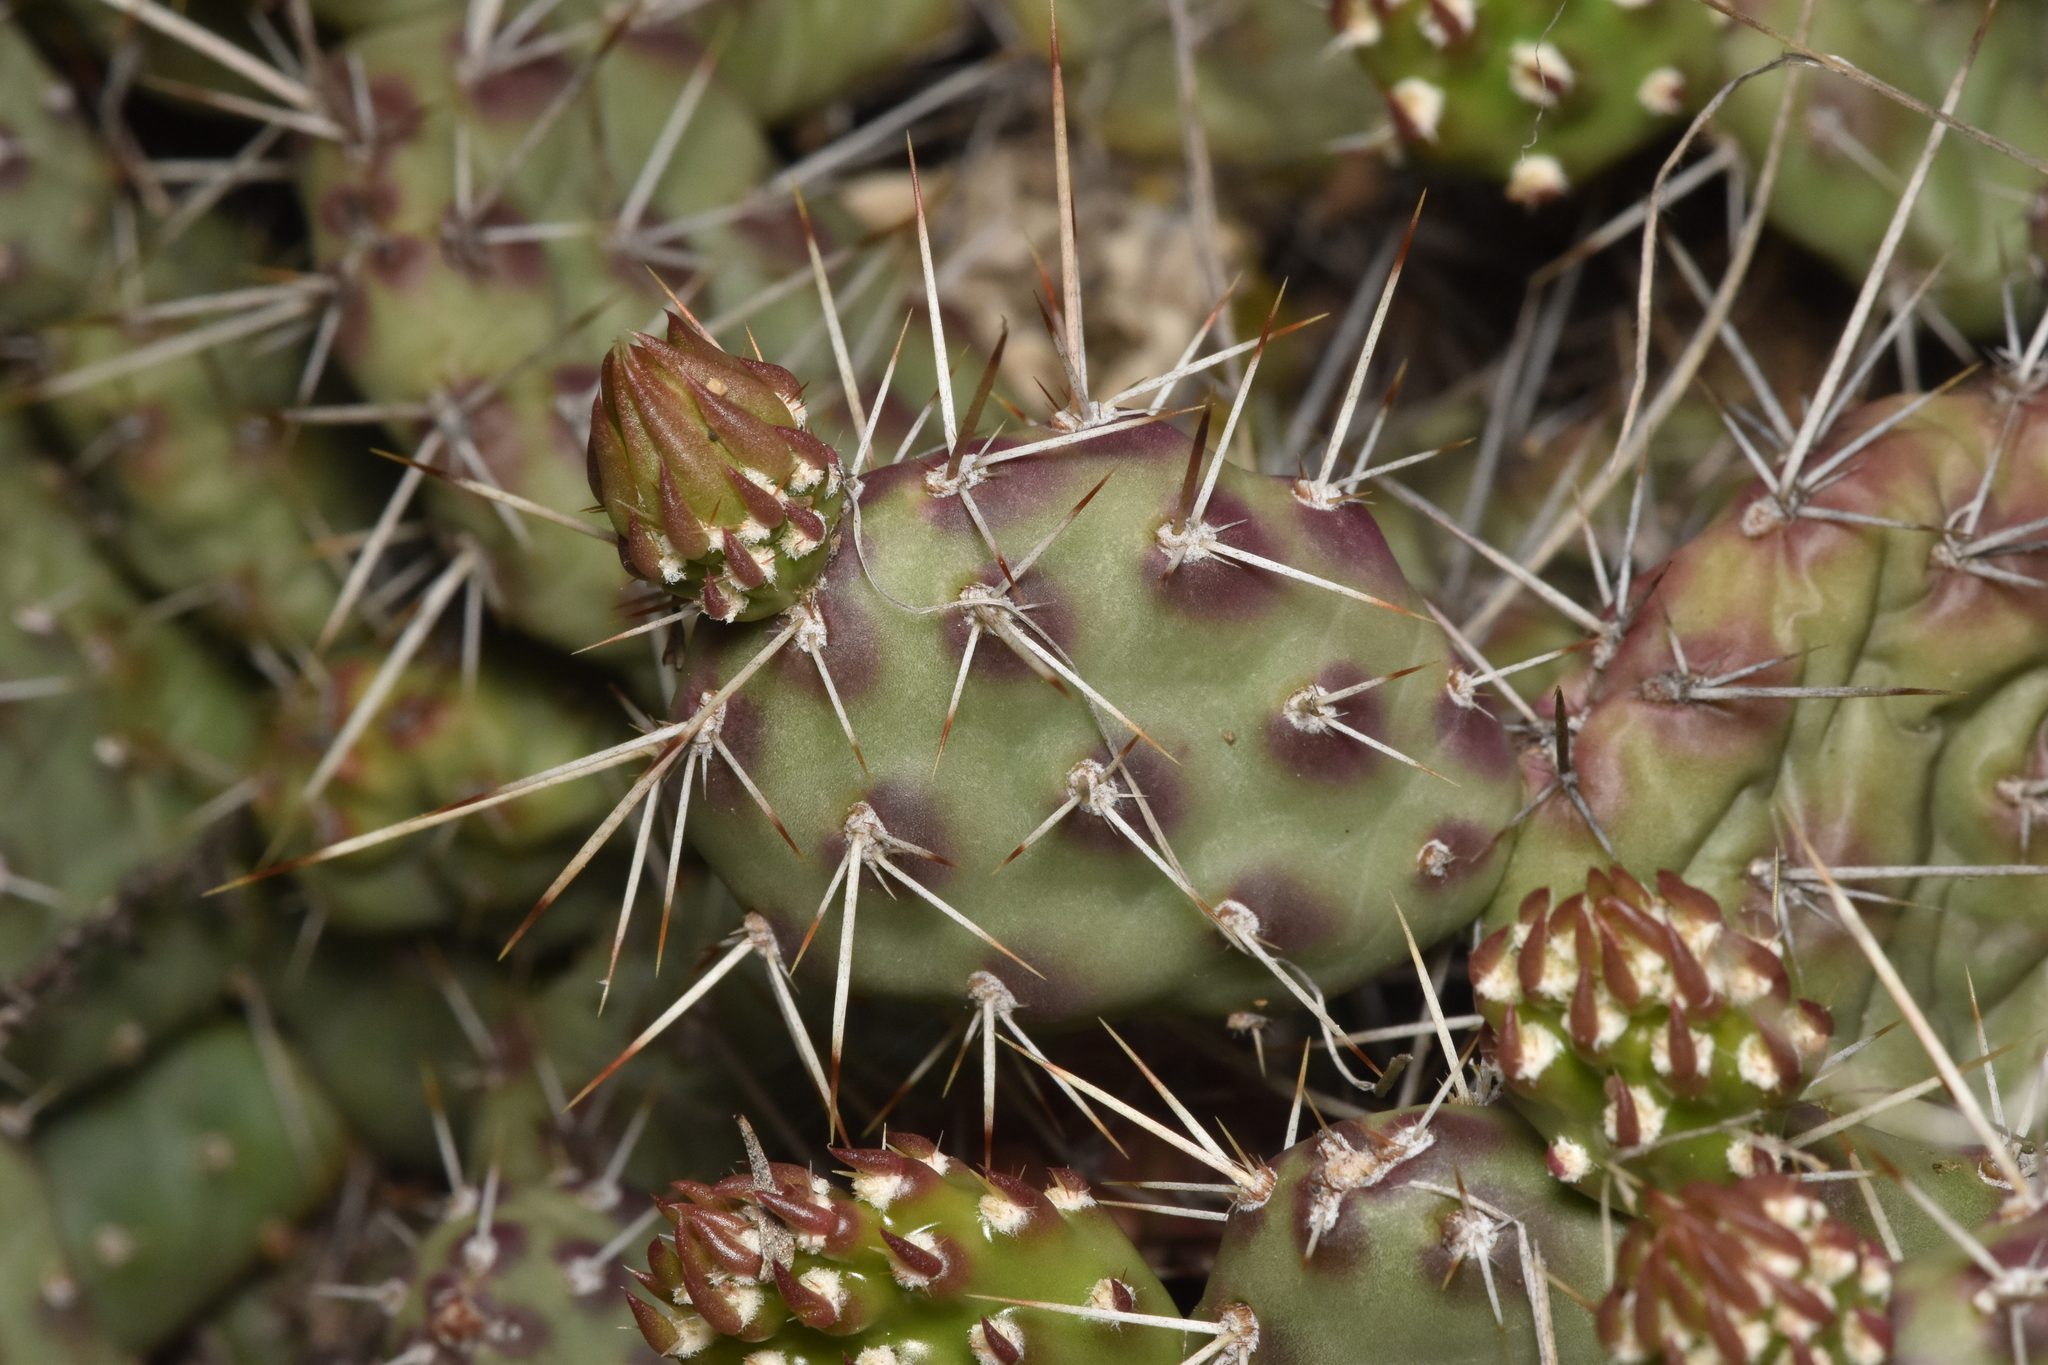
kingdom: Plantae
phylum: Tracheophyta
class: Magnoliopsida
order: Caryophyllales
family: Cactaceae
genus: Opuntia
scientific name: Opuntia fragilis
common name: Brittle cactus
